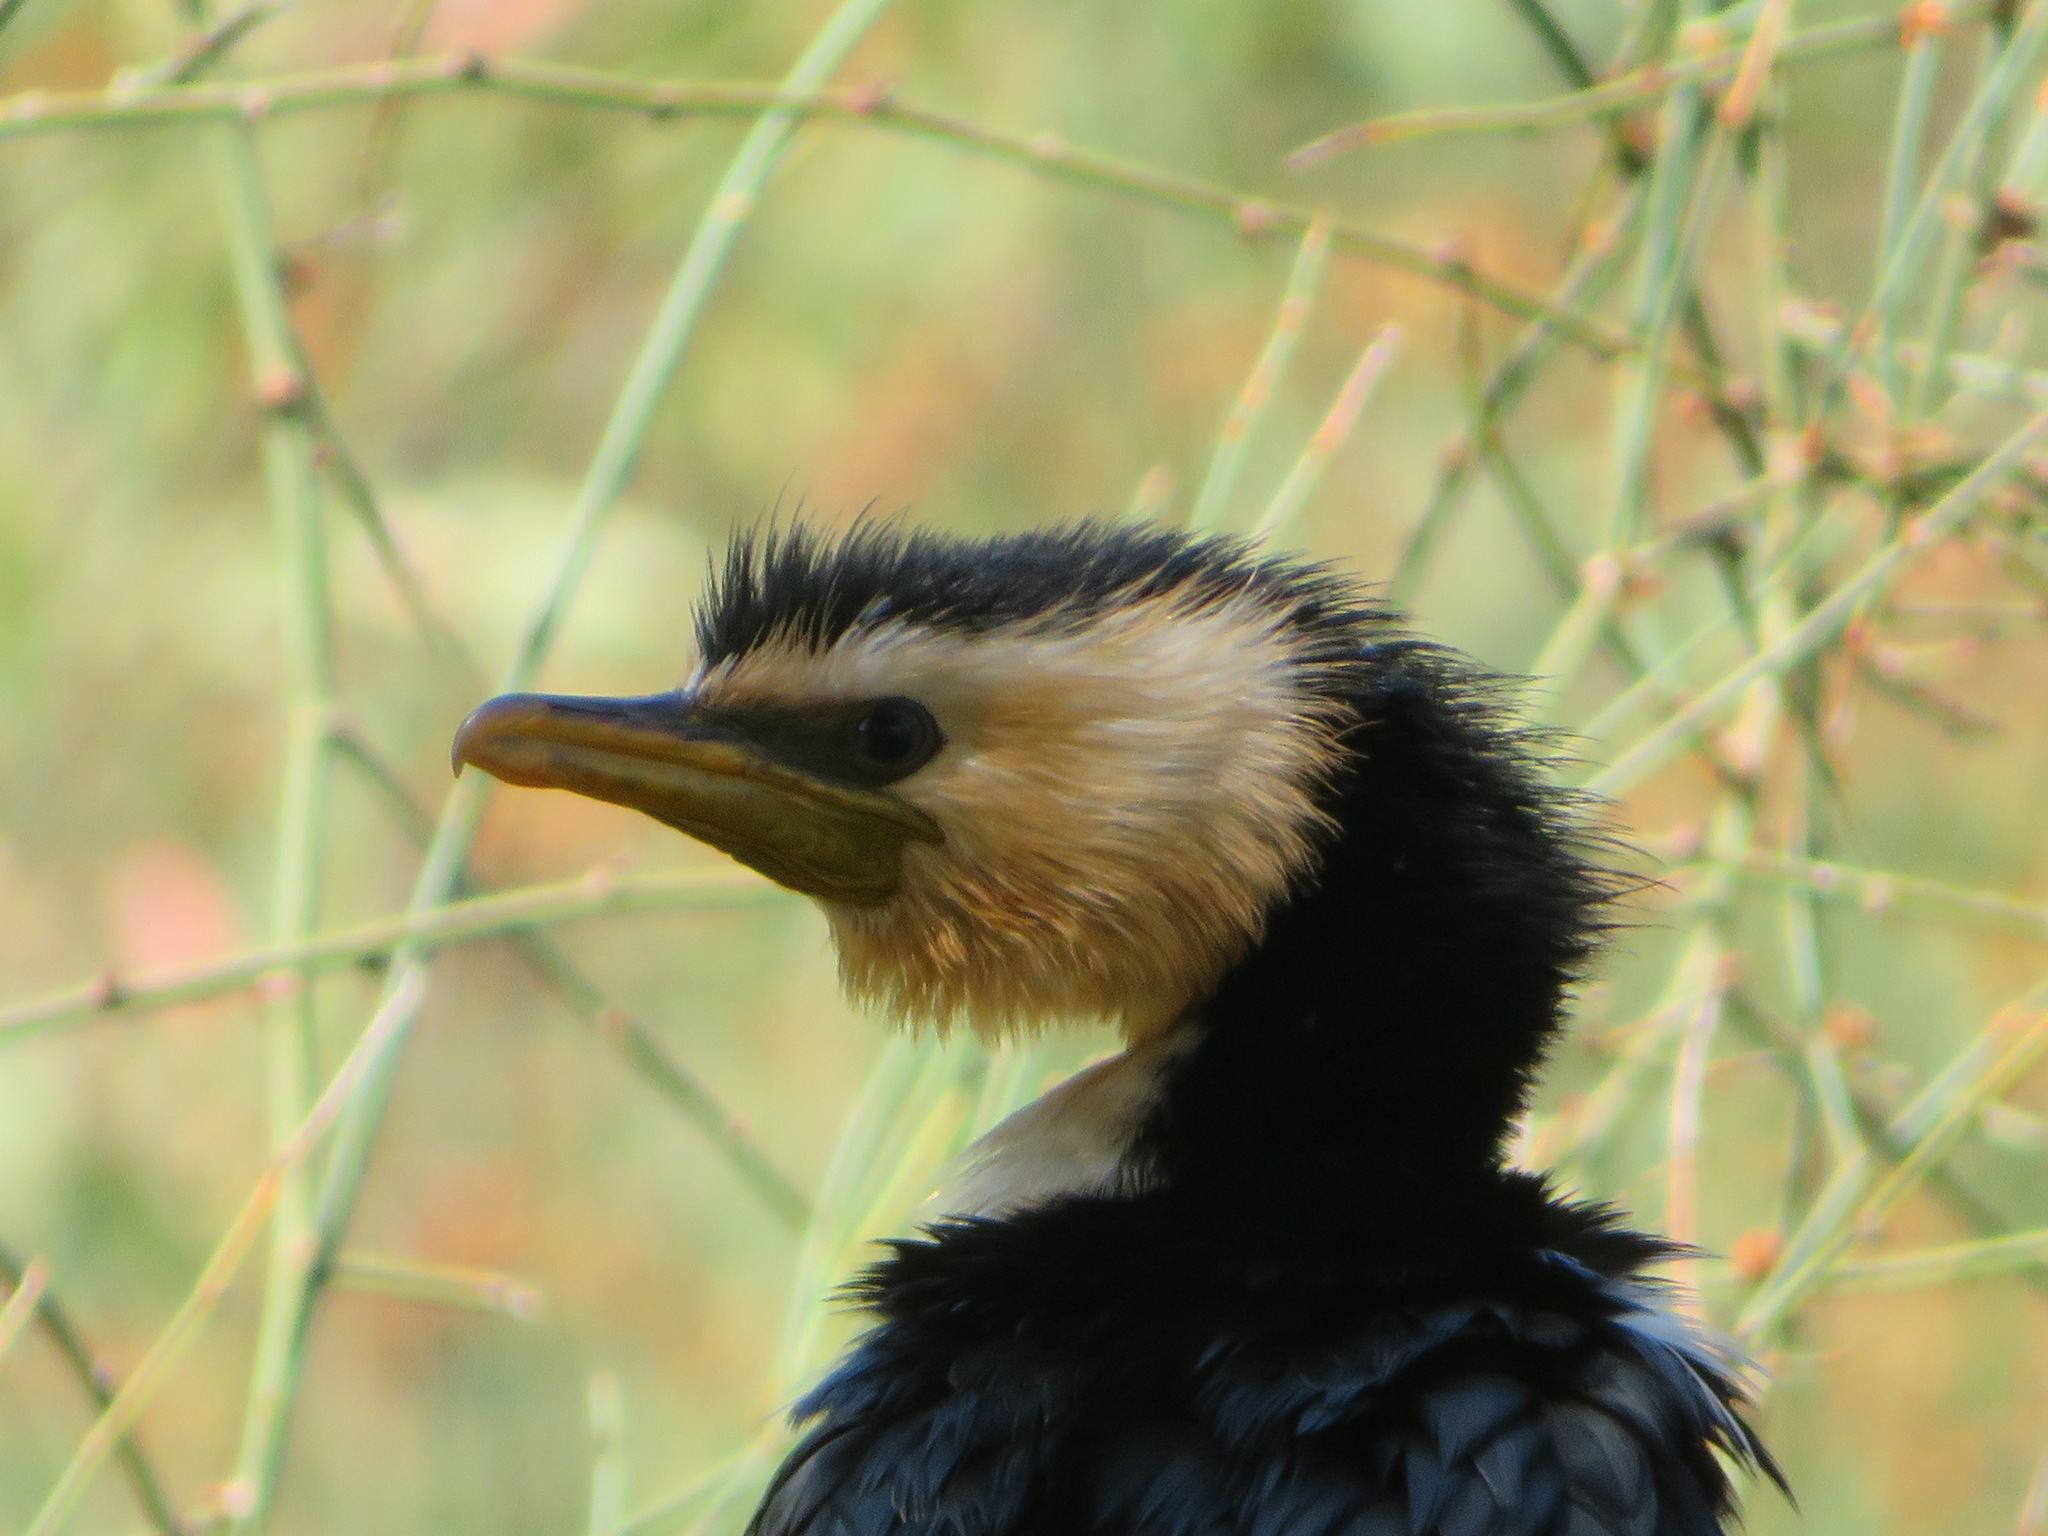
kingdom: Animalia
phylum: Chordata
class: Aves
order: Suliformes
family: Phalacrocoracidae
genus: Microcarbo
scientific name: Microcarbo melanoleucos
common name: Little pied cormorant
